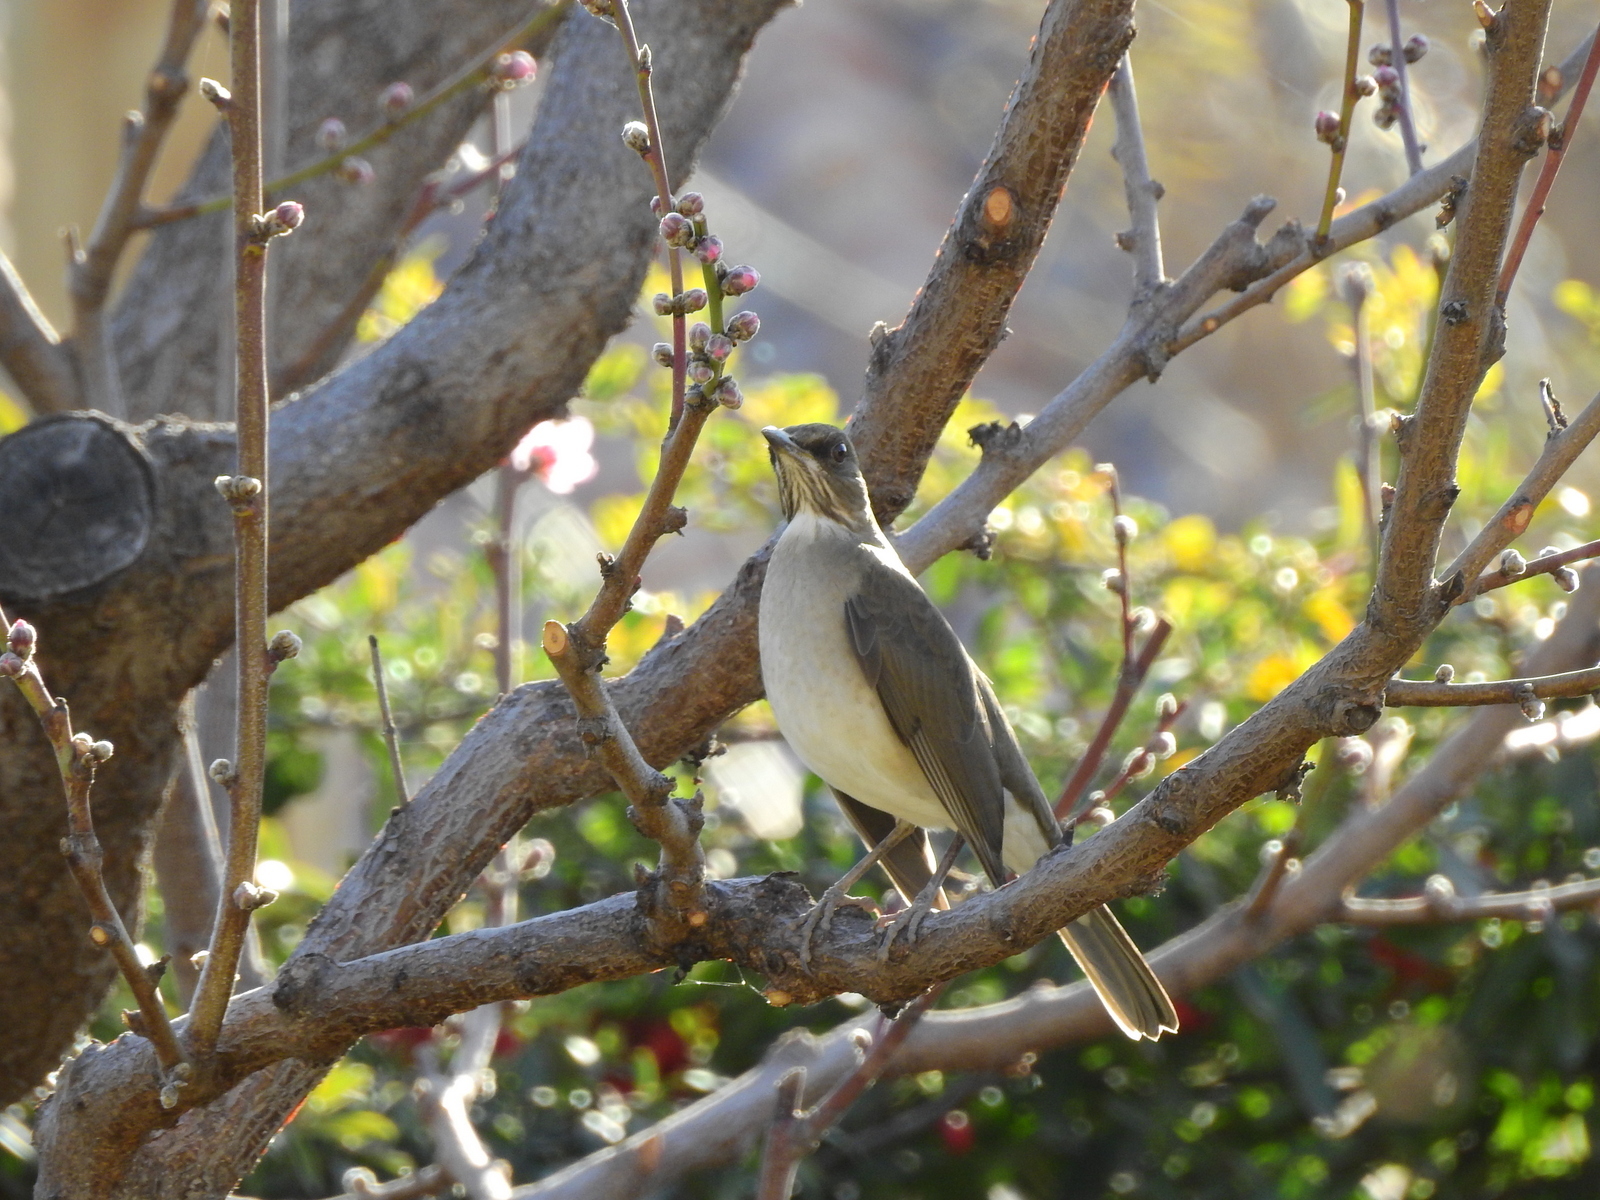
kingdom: Animalia
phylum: Chordata
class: Aves
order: Passeriformes
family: Turdidae
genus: Turdus
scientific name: Turdus amaurochalinus
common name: Creamy-bellied thrush
